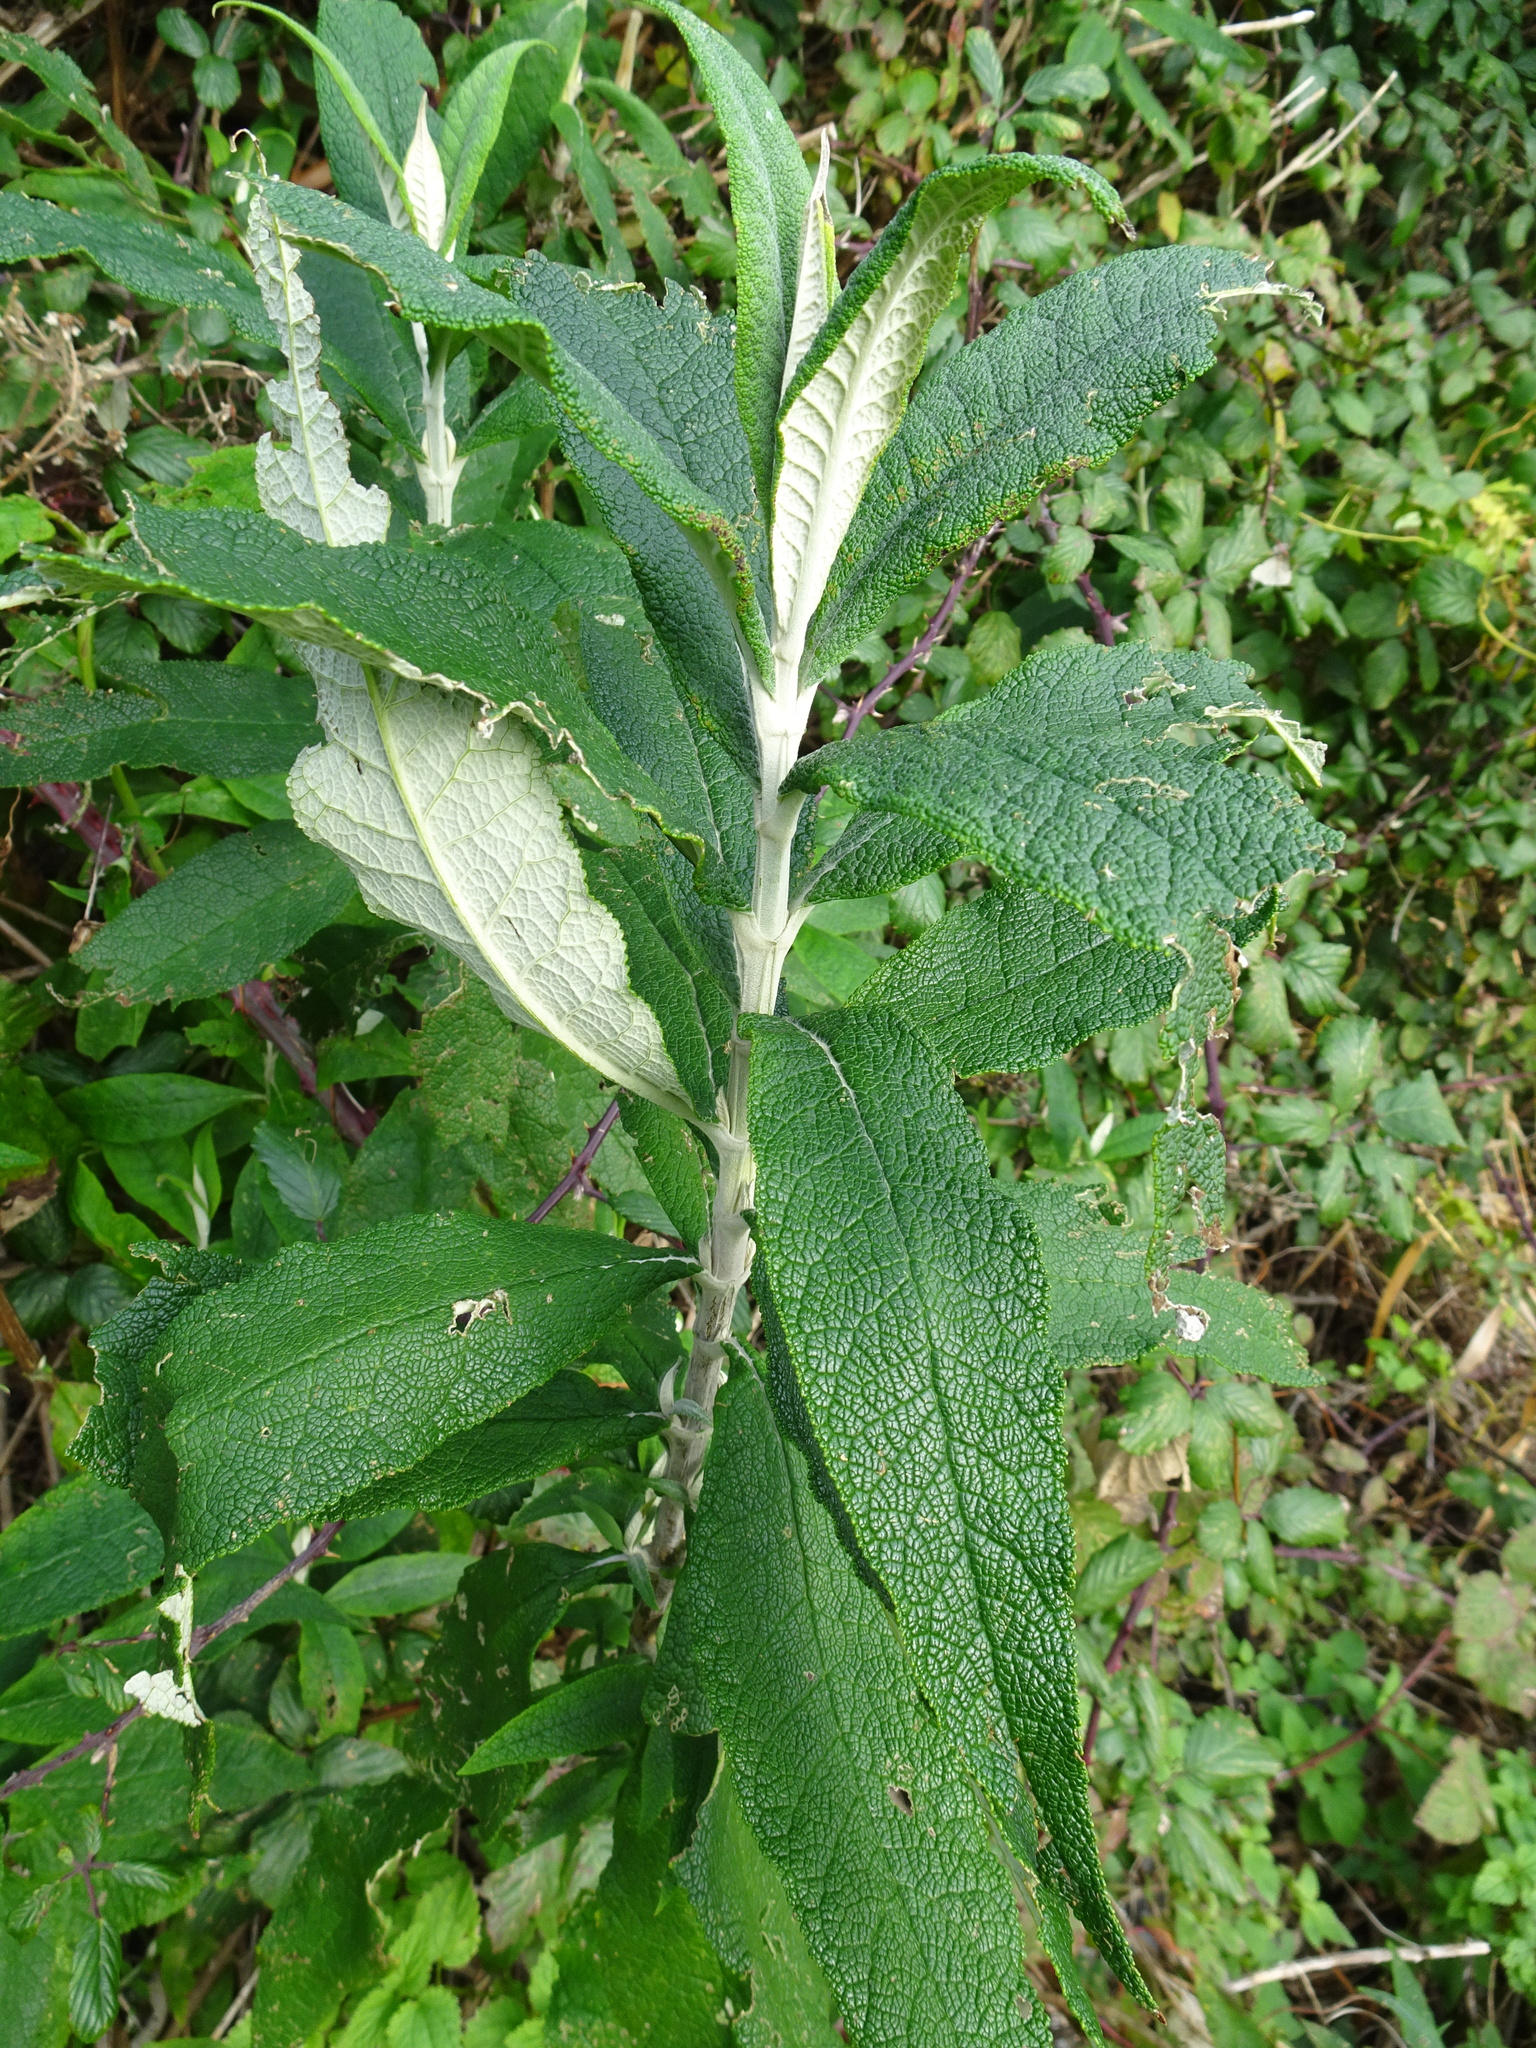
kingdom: Plantae
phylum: Tracheophyta
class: Magnoliopsida
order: Lamiales
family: Scrophulariaceae
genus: Buddleja
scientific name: Buddleja davidii
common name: Butterfly-bush
